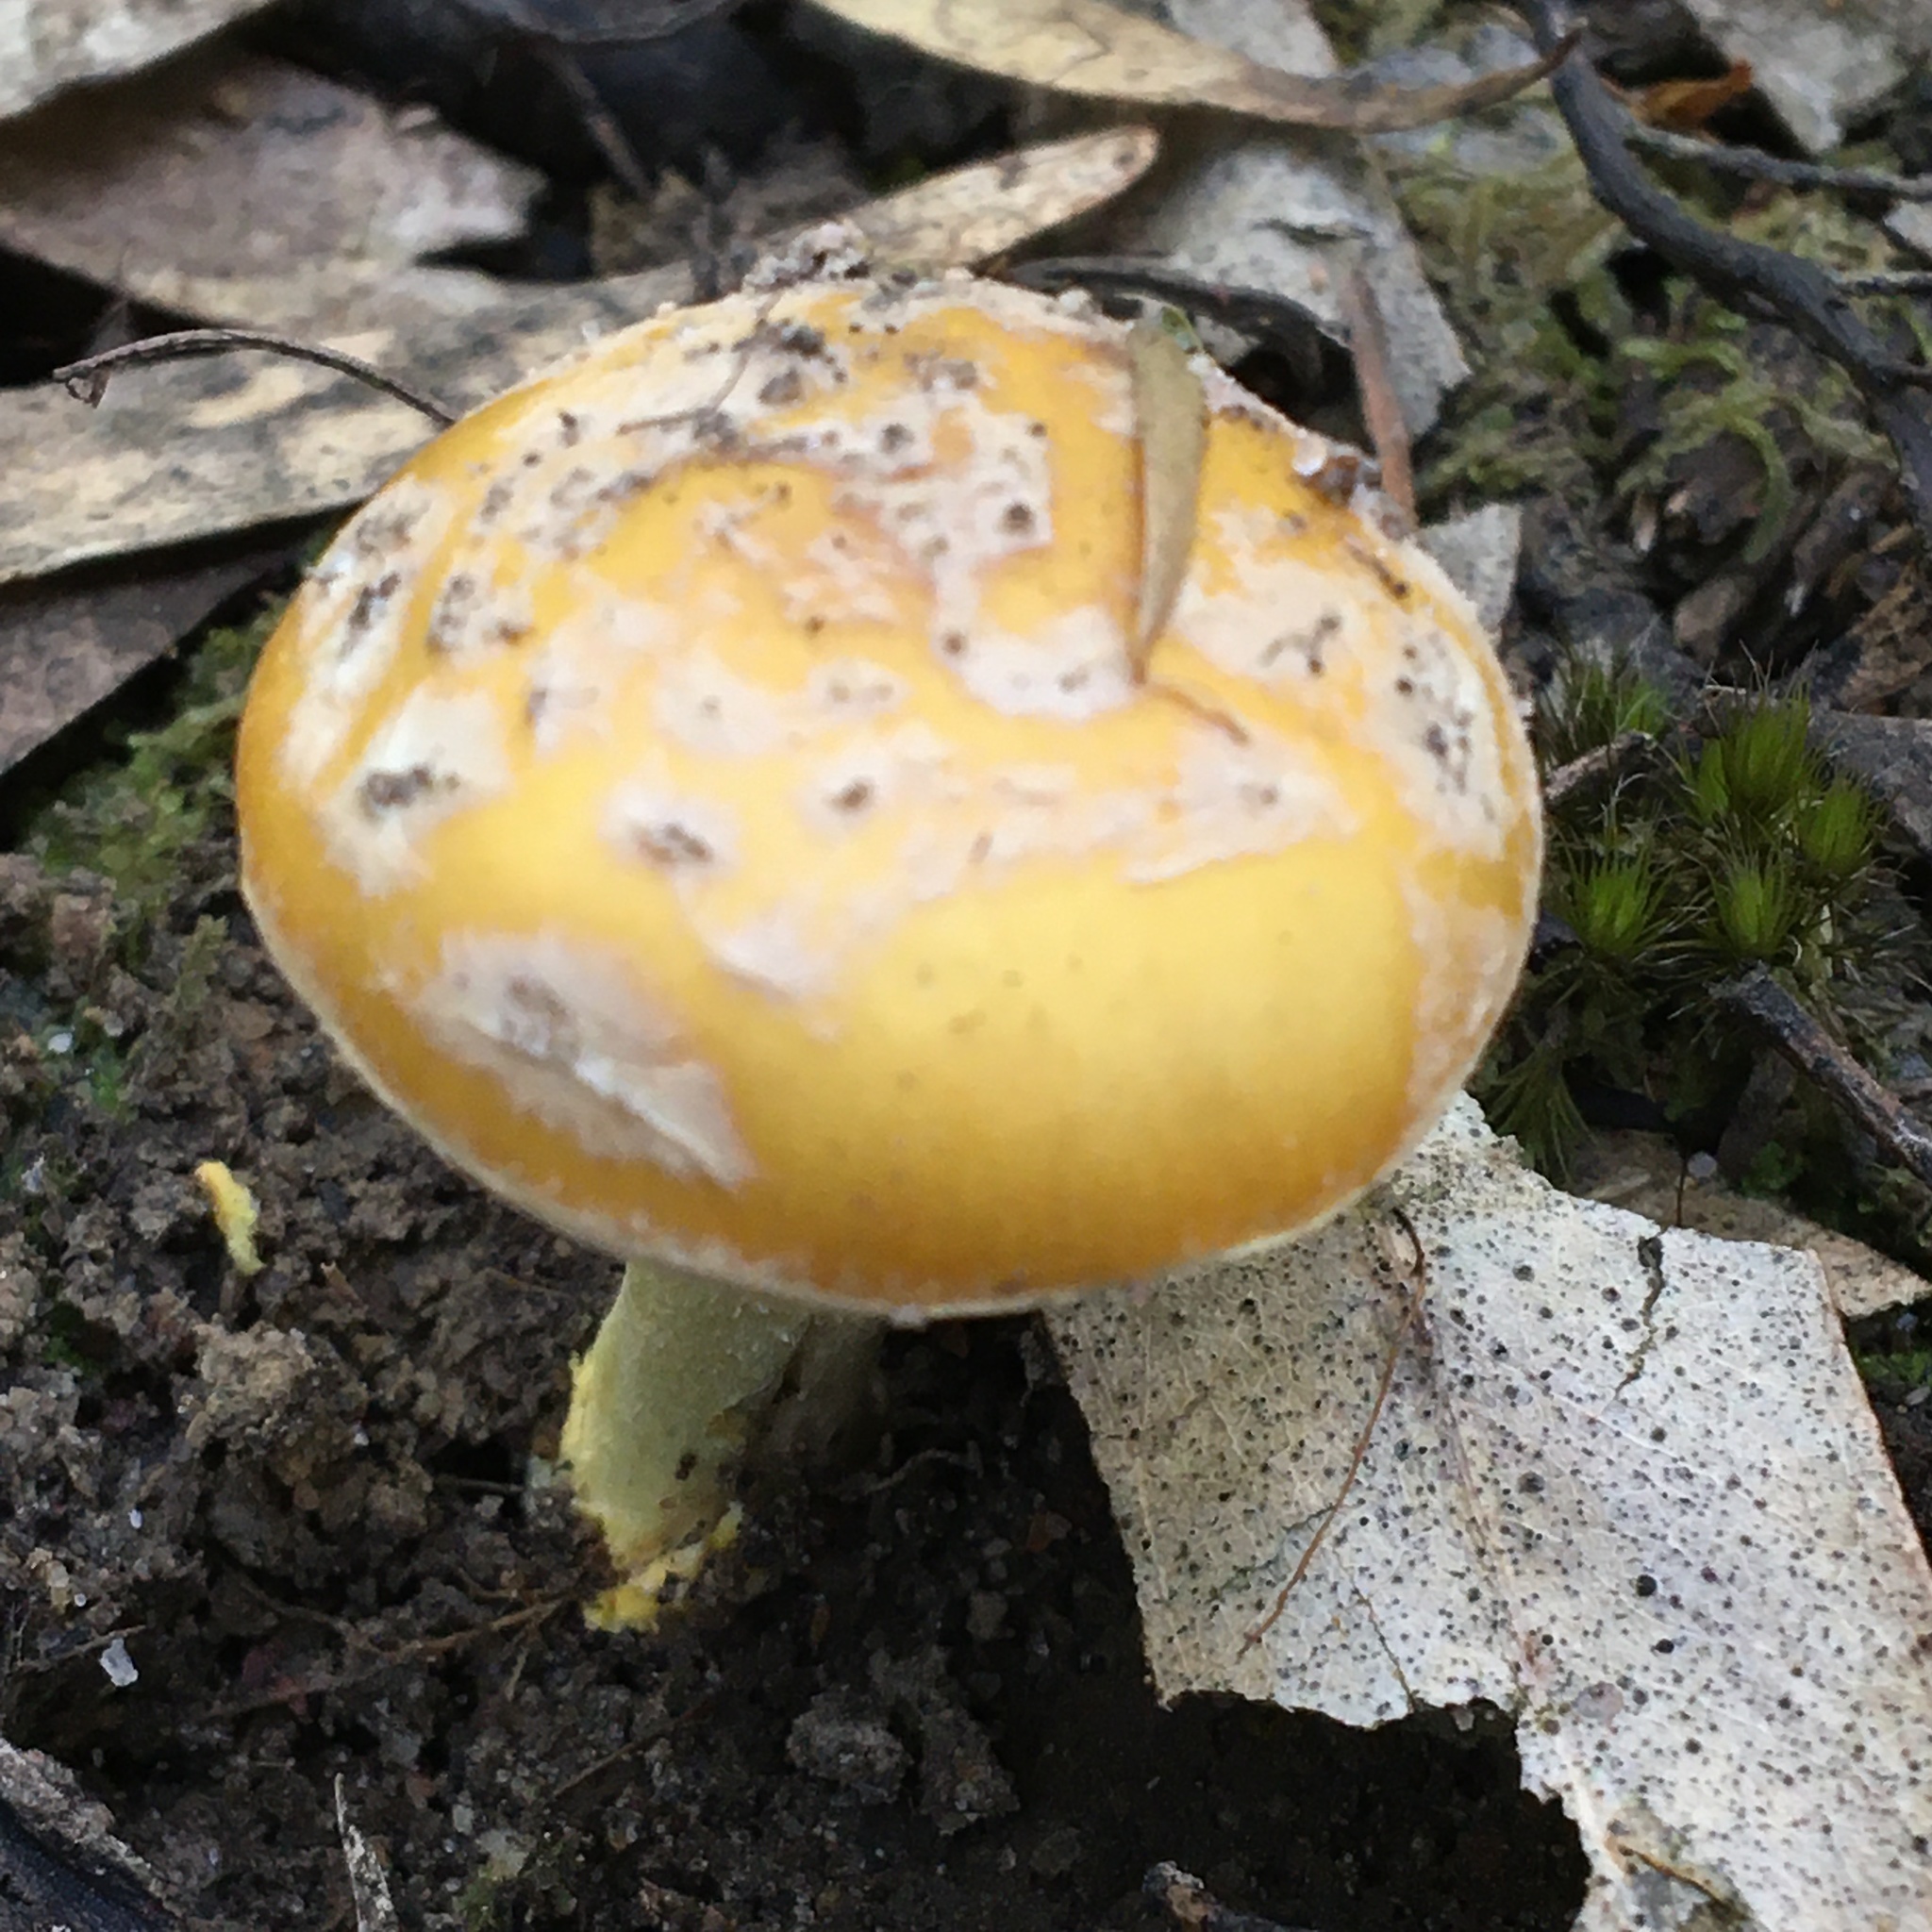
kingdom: Fungi
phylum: Basidiomycota
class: Agaricomycetes
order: Agaricales
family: Amanitaceae
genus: Amanita
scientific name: Amanita xanthocephala
